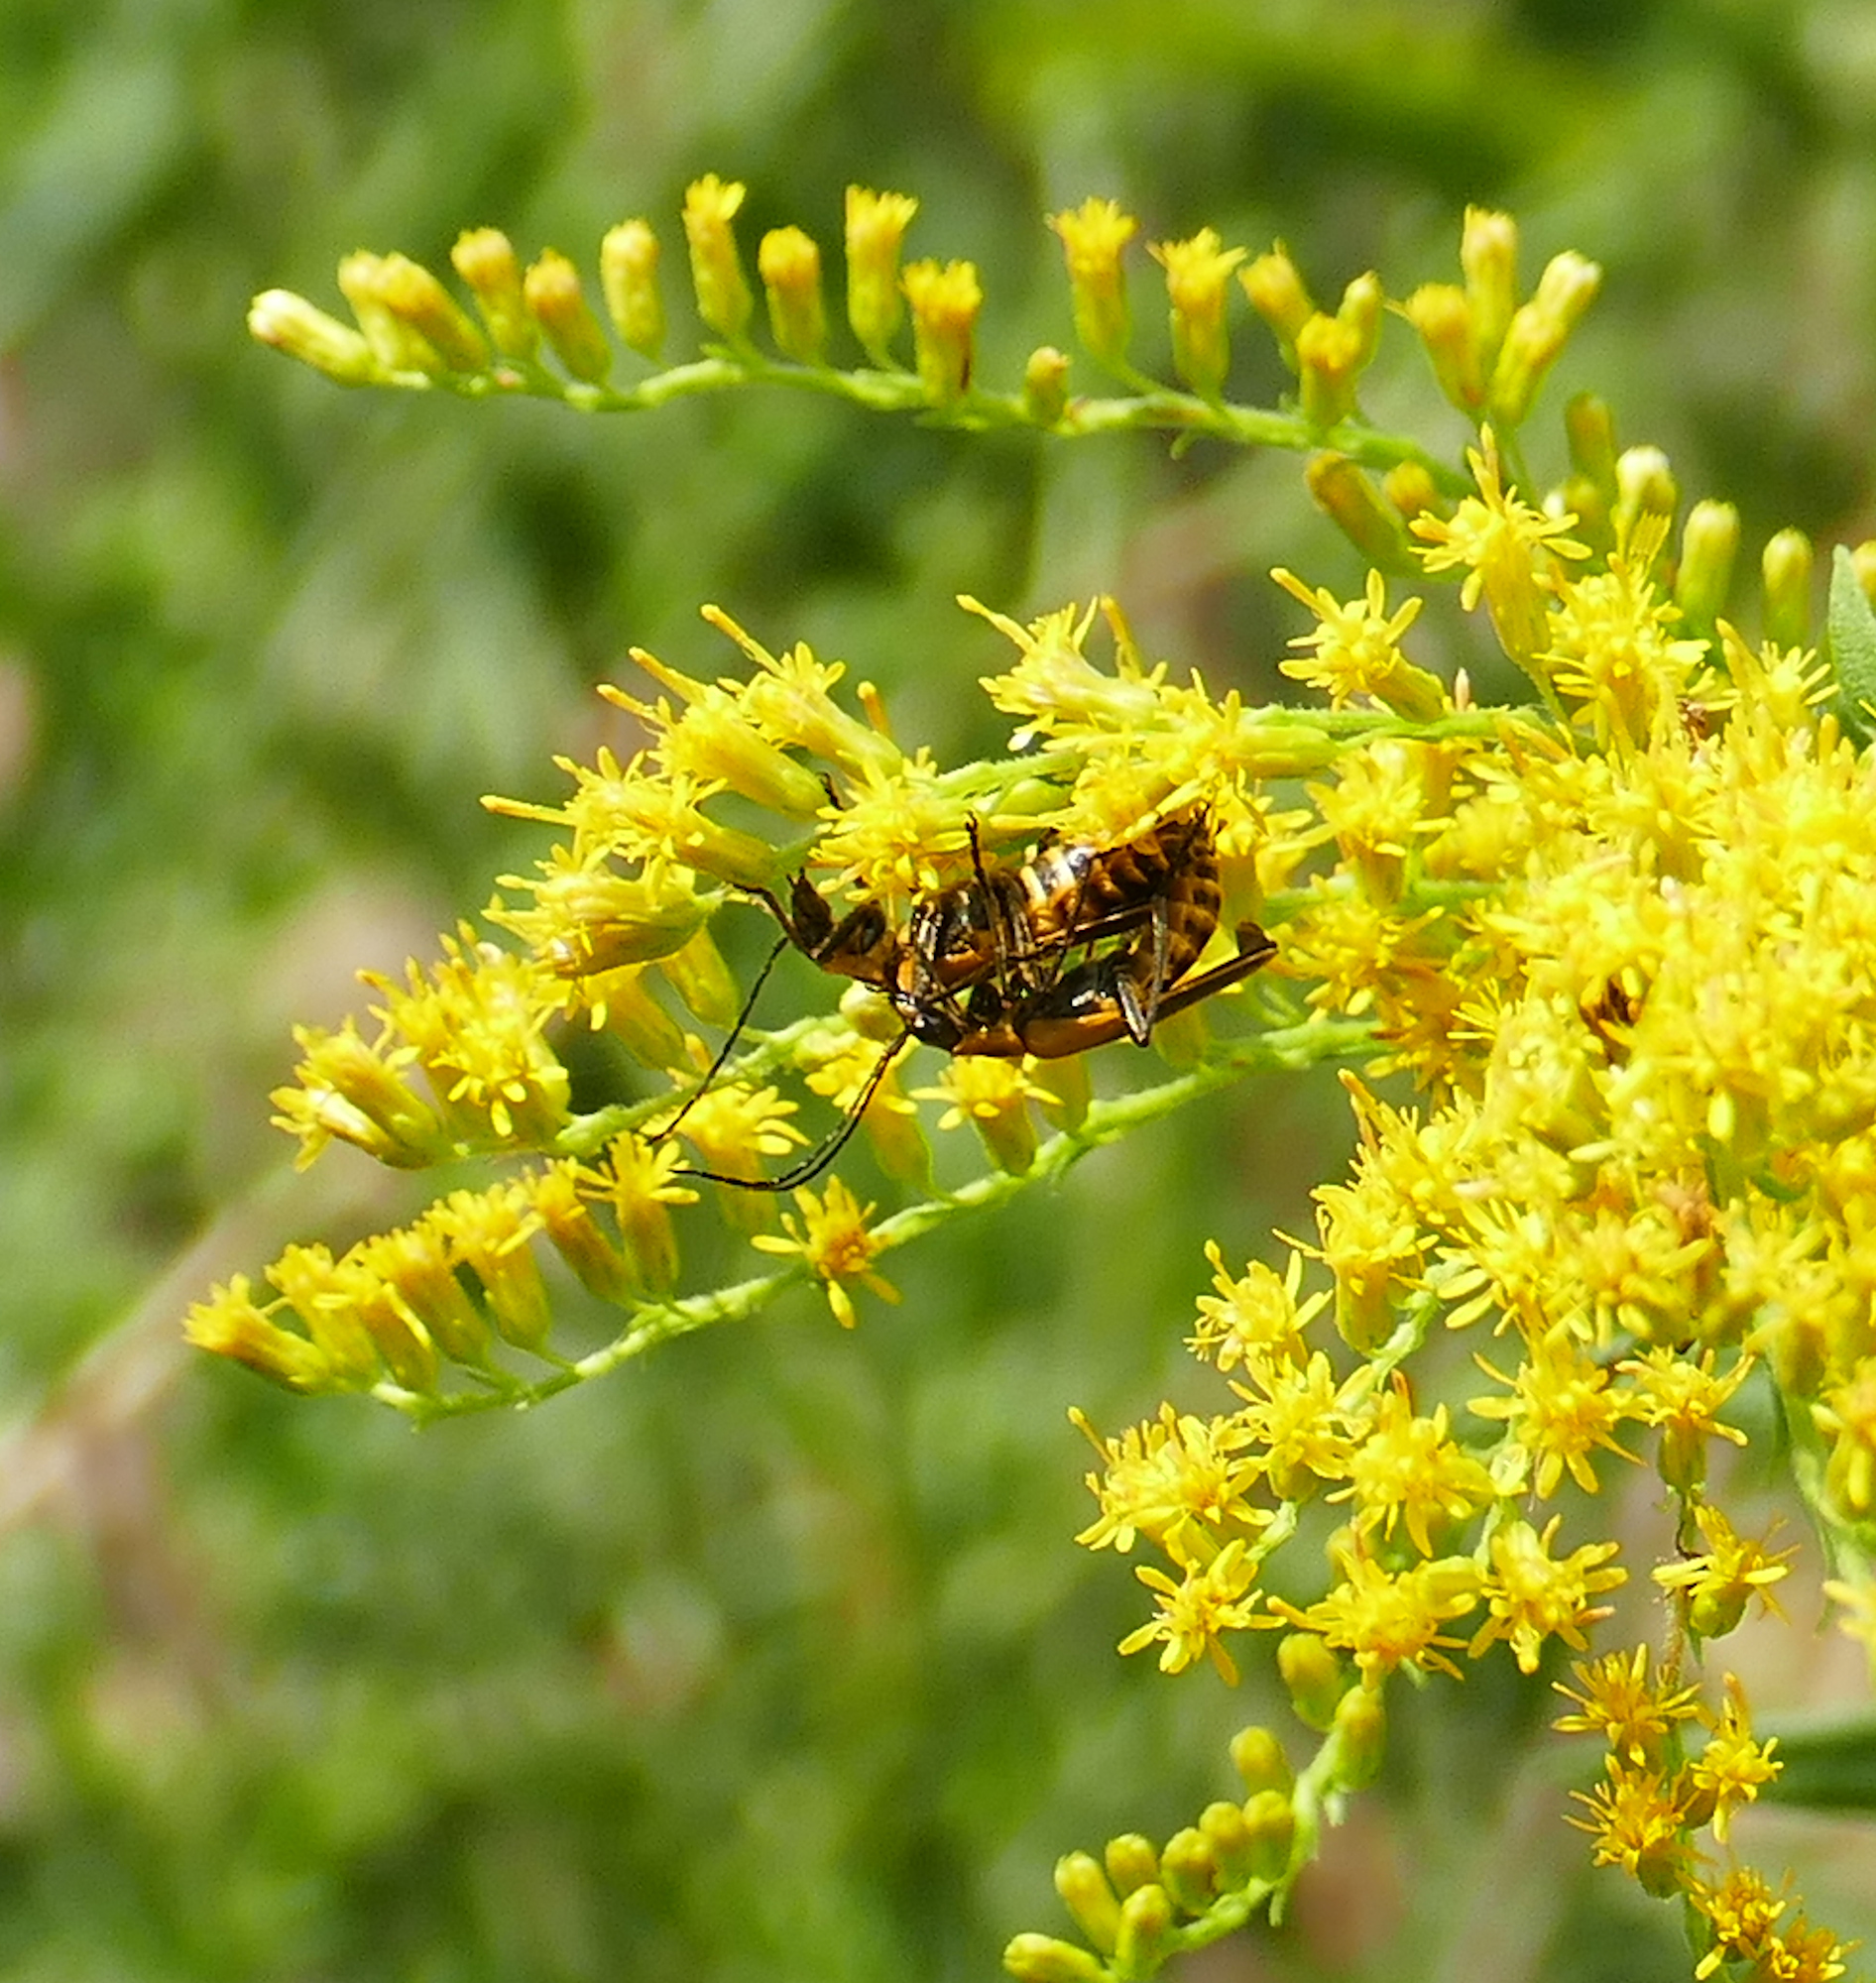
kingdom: Animalia
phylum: Arthropoda
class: Insecta
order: Coleoptera
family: Cantharidae
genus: Chauliognathus
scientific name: Chauliognathus pensylvanicus
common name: Goldenrod soldier beetle
